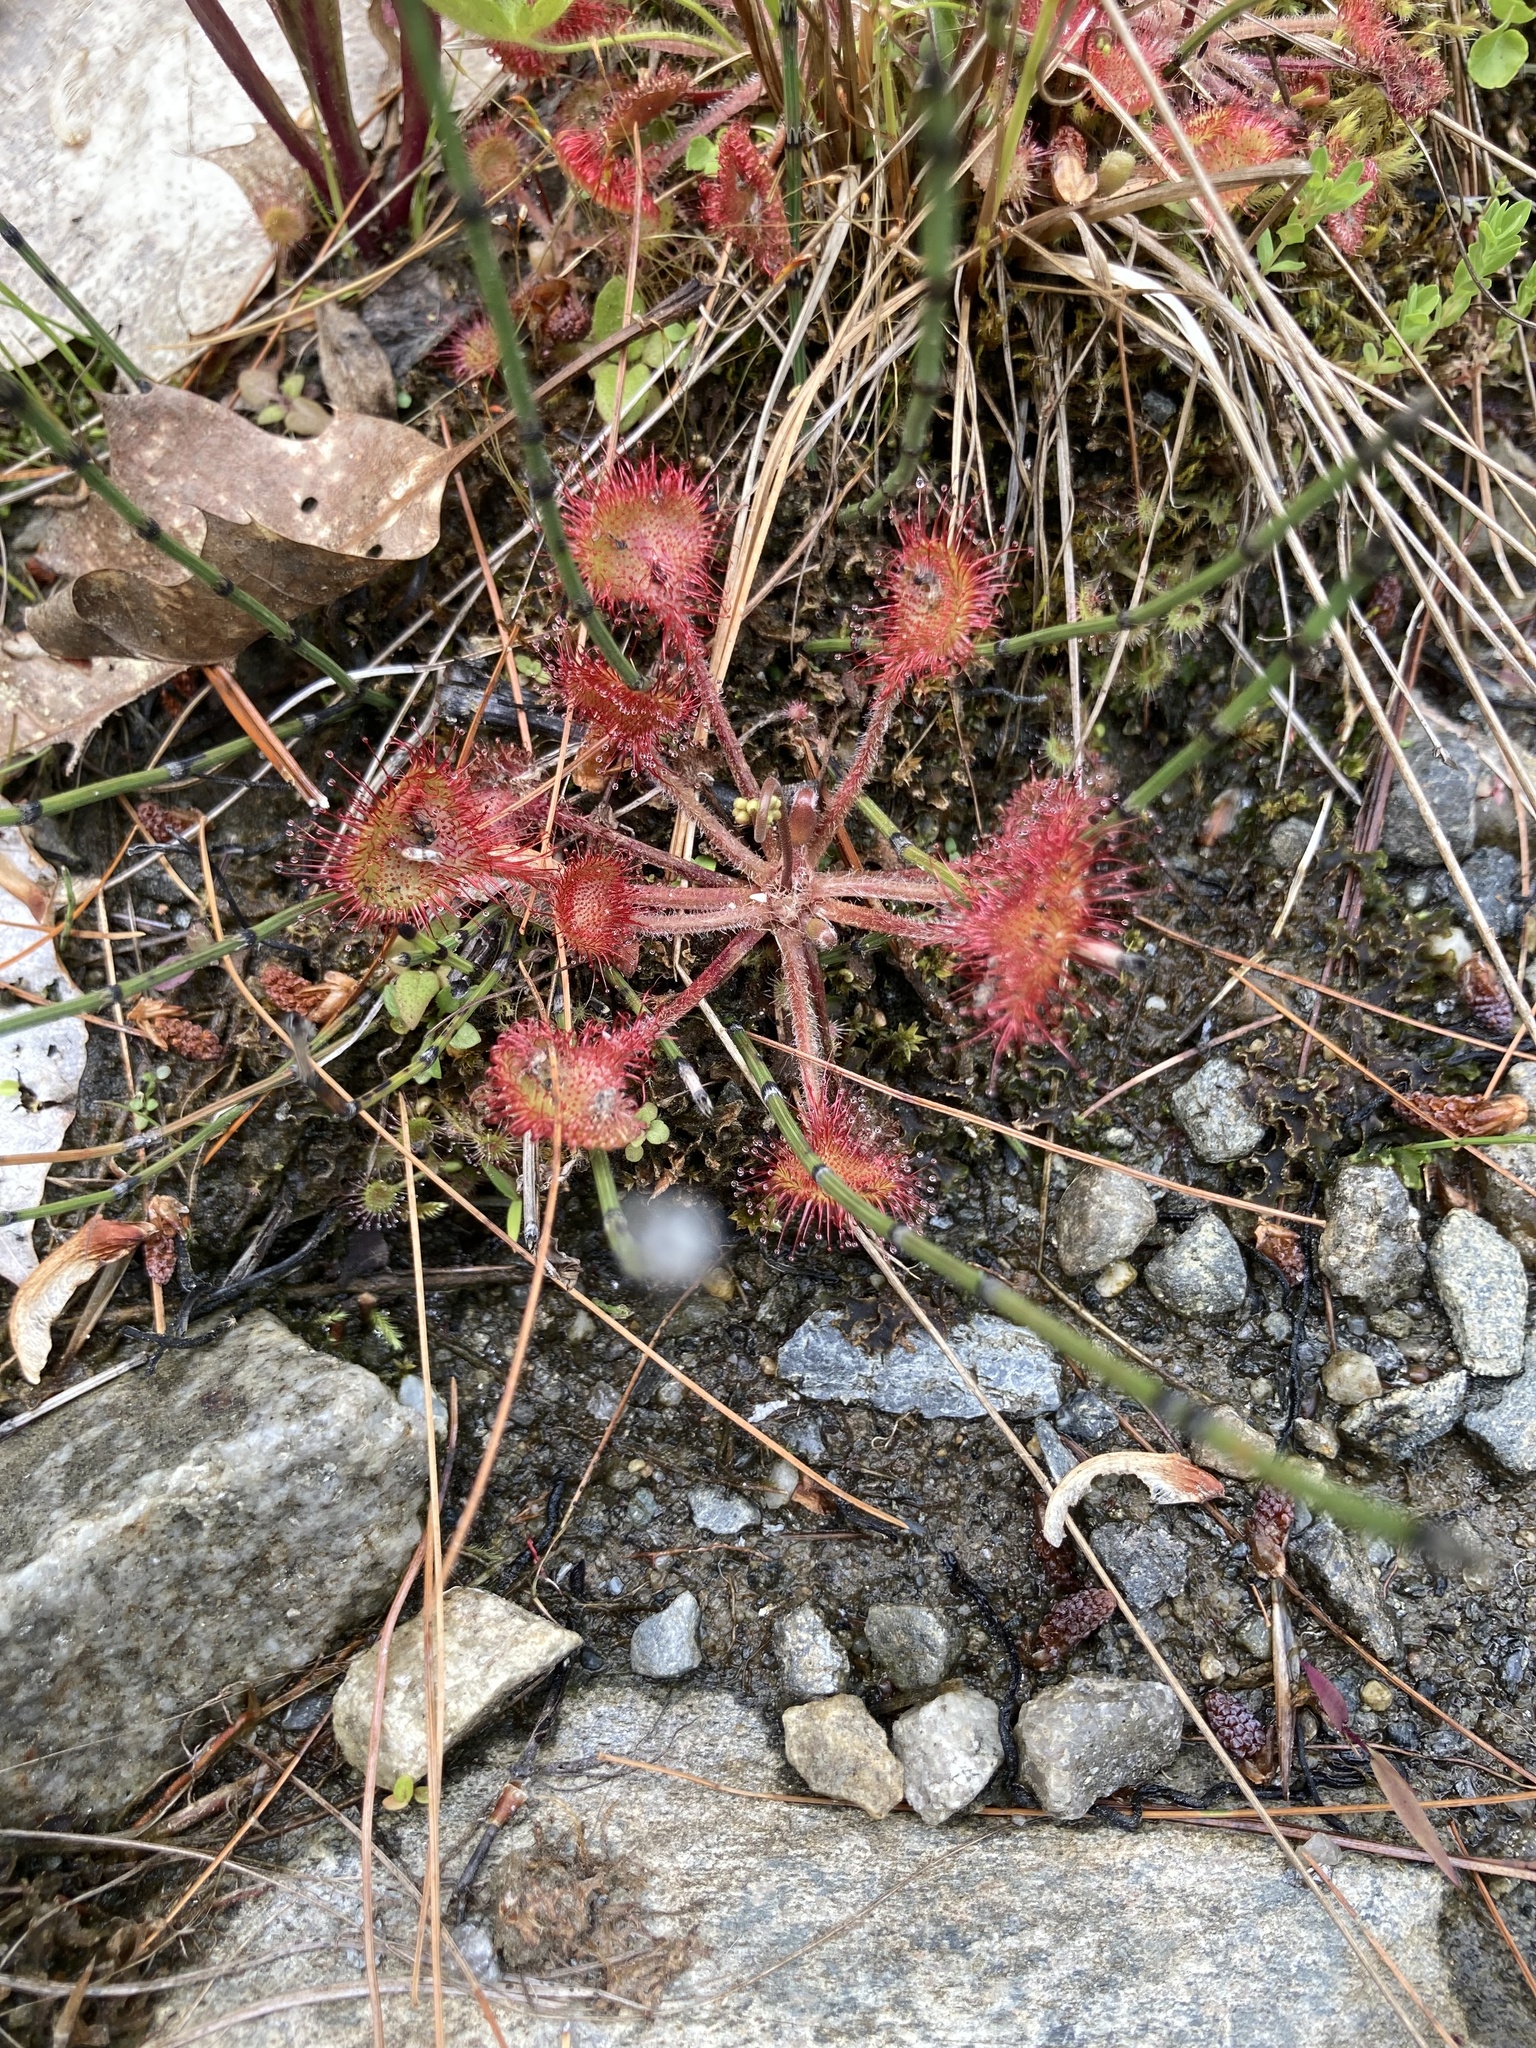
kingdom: Plantae
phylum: Tracheophyta
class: Magnoliopsida
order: Caryophyllales
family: Droseraceae
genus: Drosera
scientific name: Drosera rotundifolia
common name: Round-leaved sundew
